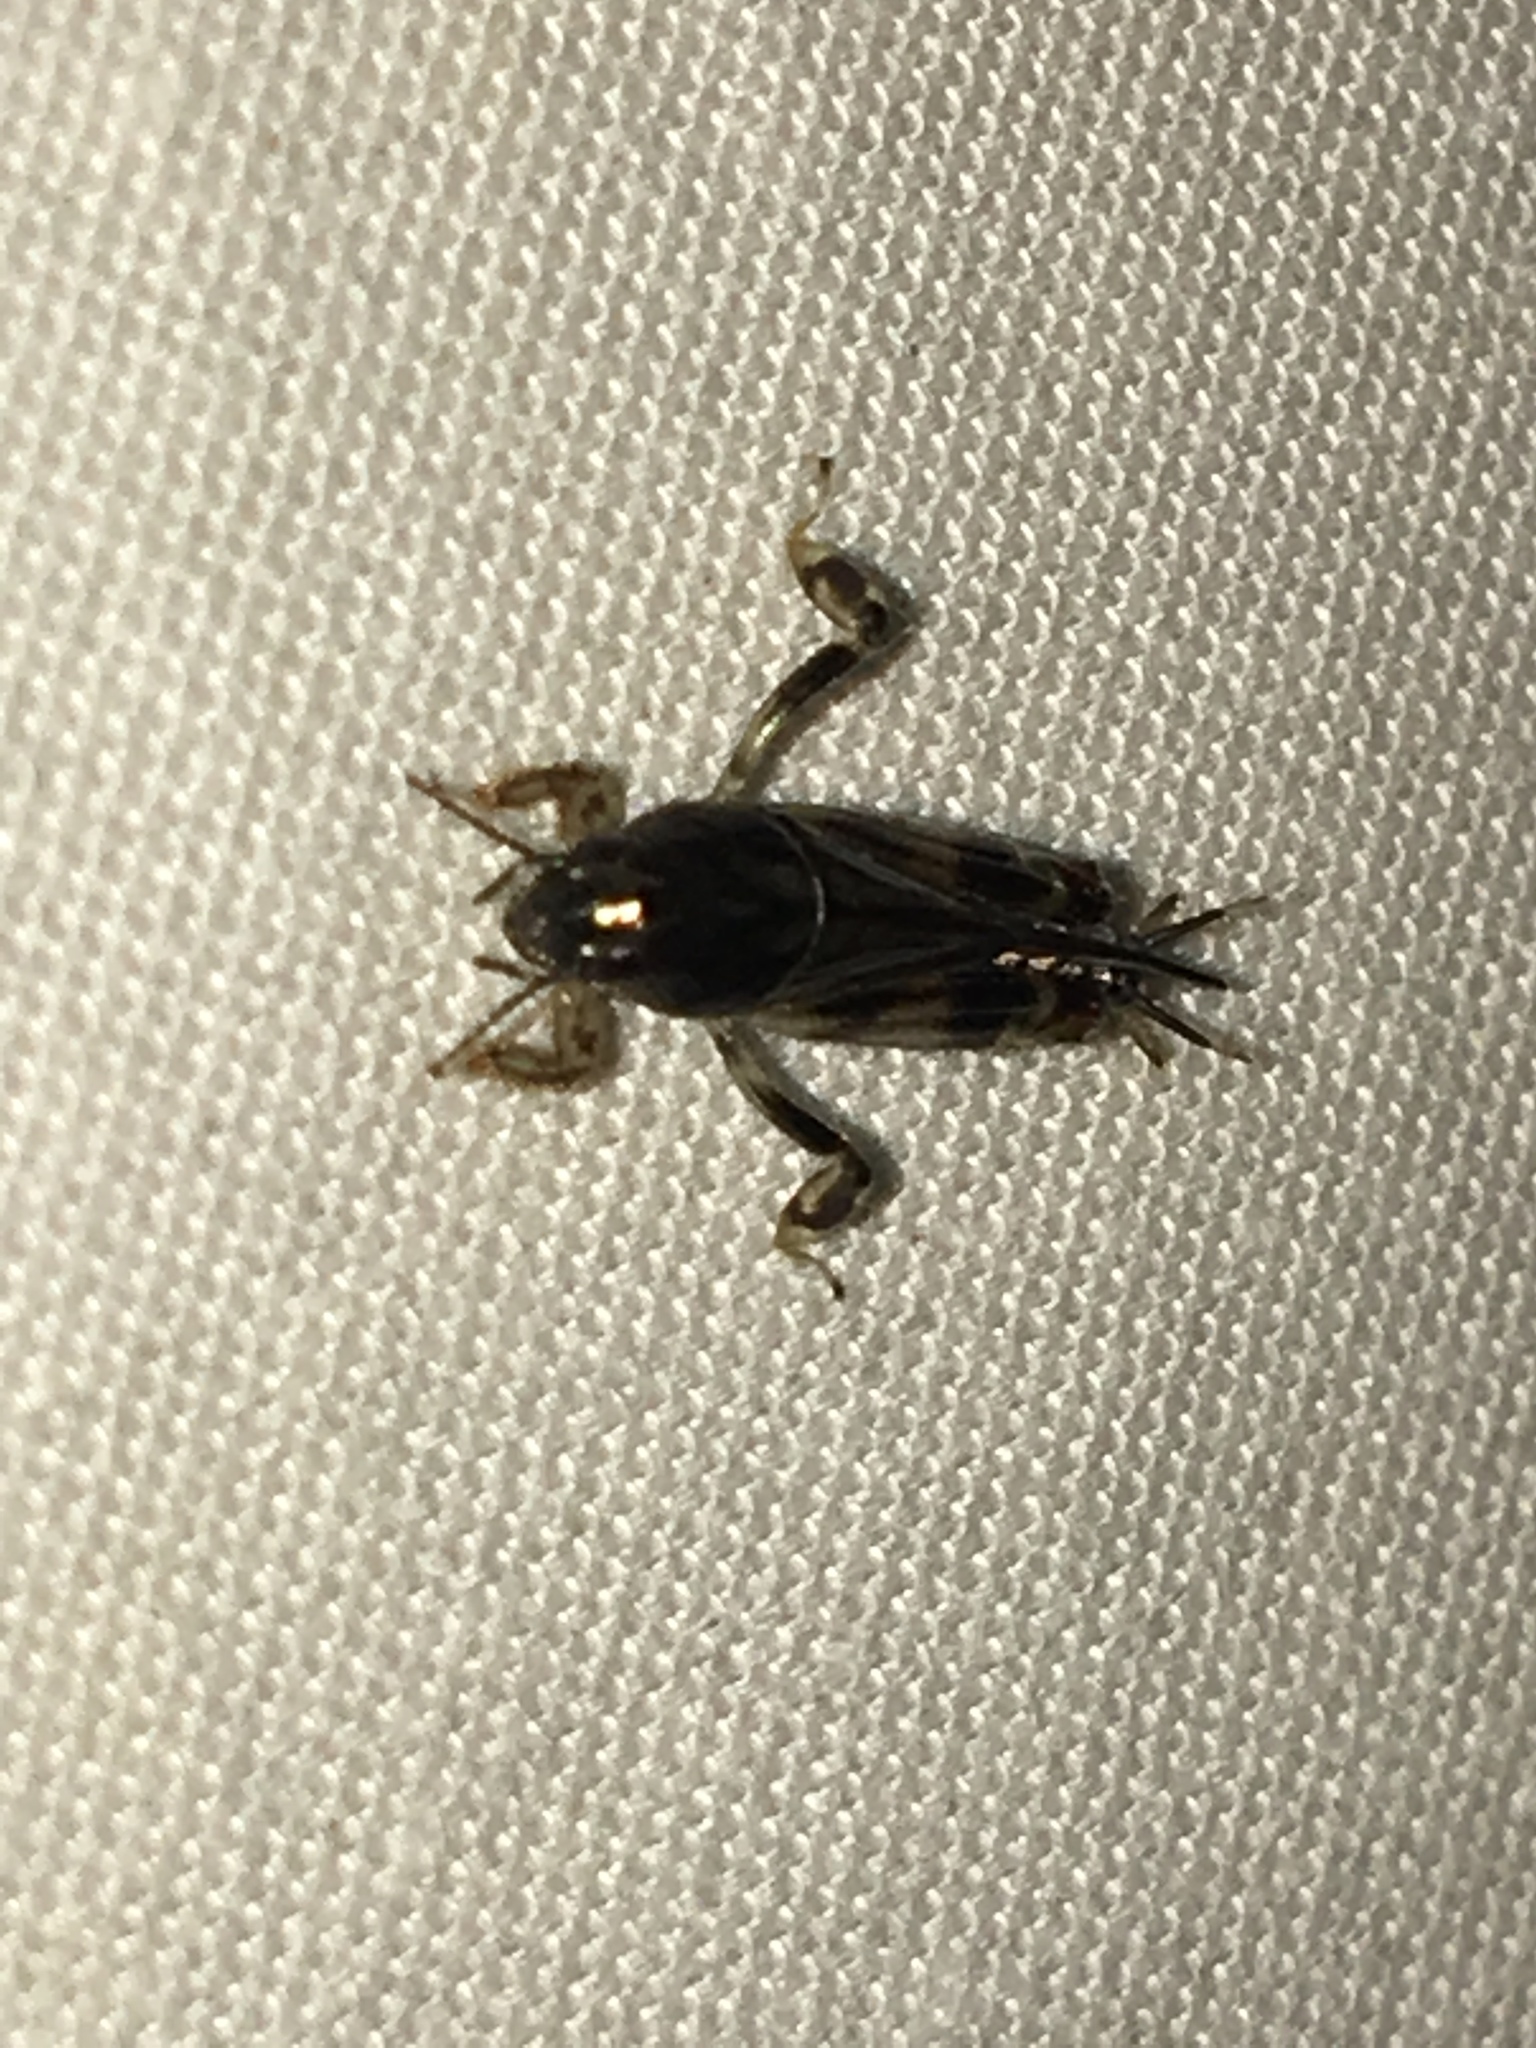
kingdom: Animalia
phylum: Arthropoda
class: Insecta
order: Orthoptera
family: Tridactylidae
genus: Neotridactylus
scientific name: Neotridactylus apicialis
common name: Larger pygmy locust
